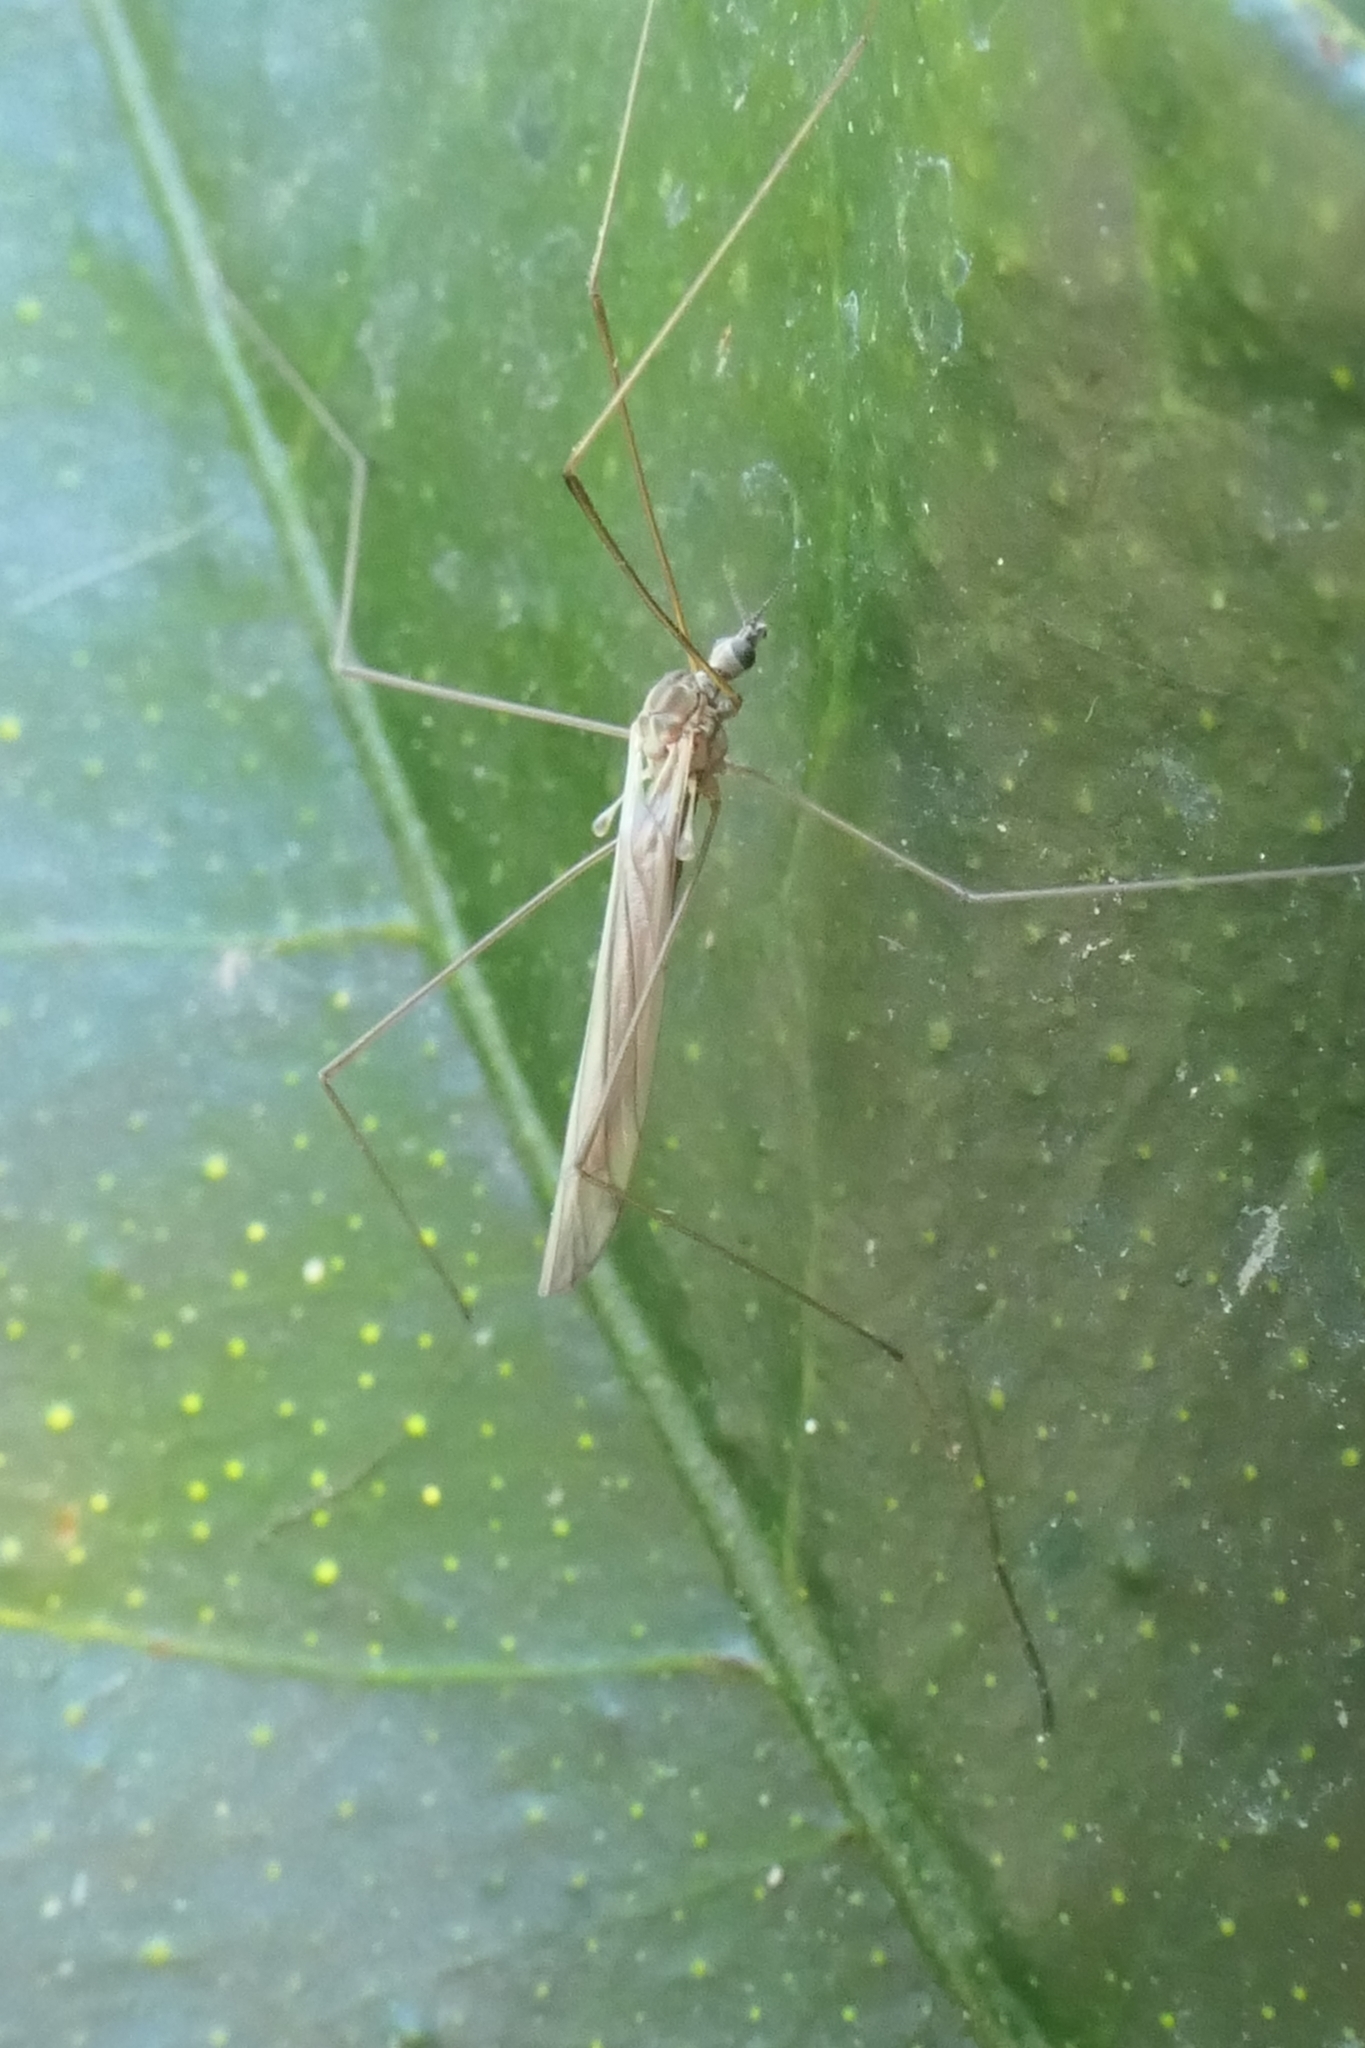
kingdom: Animalia
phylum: Arthropoda
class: Insecta
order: Diptera
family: Limoniidae
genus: Dicranomyia
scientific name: Dicranomyia aegrotans
